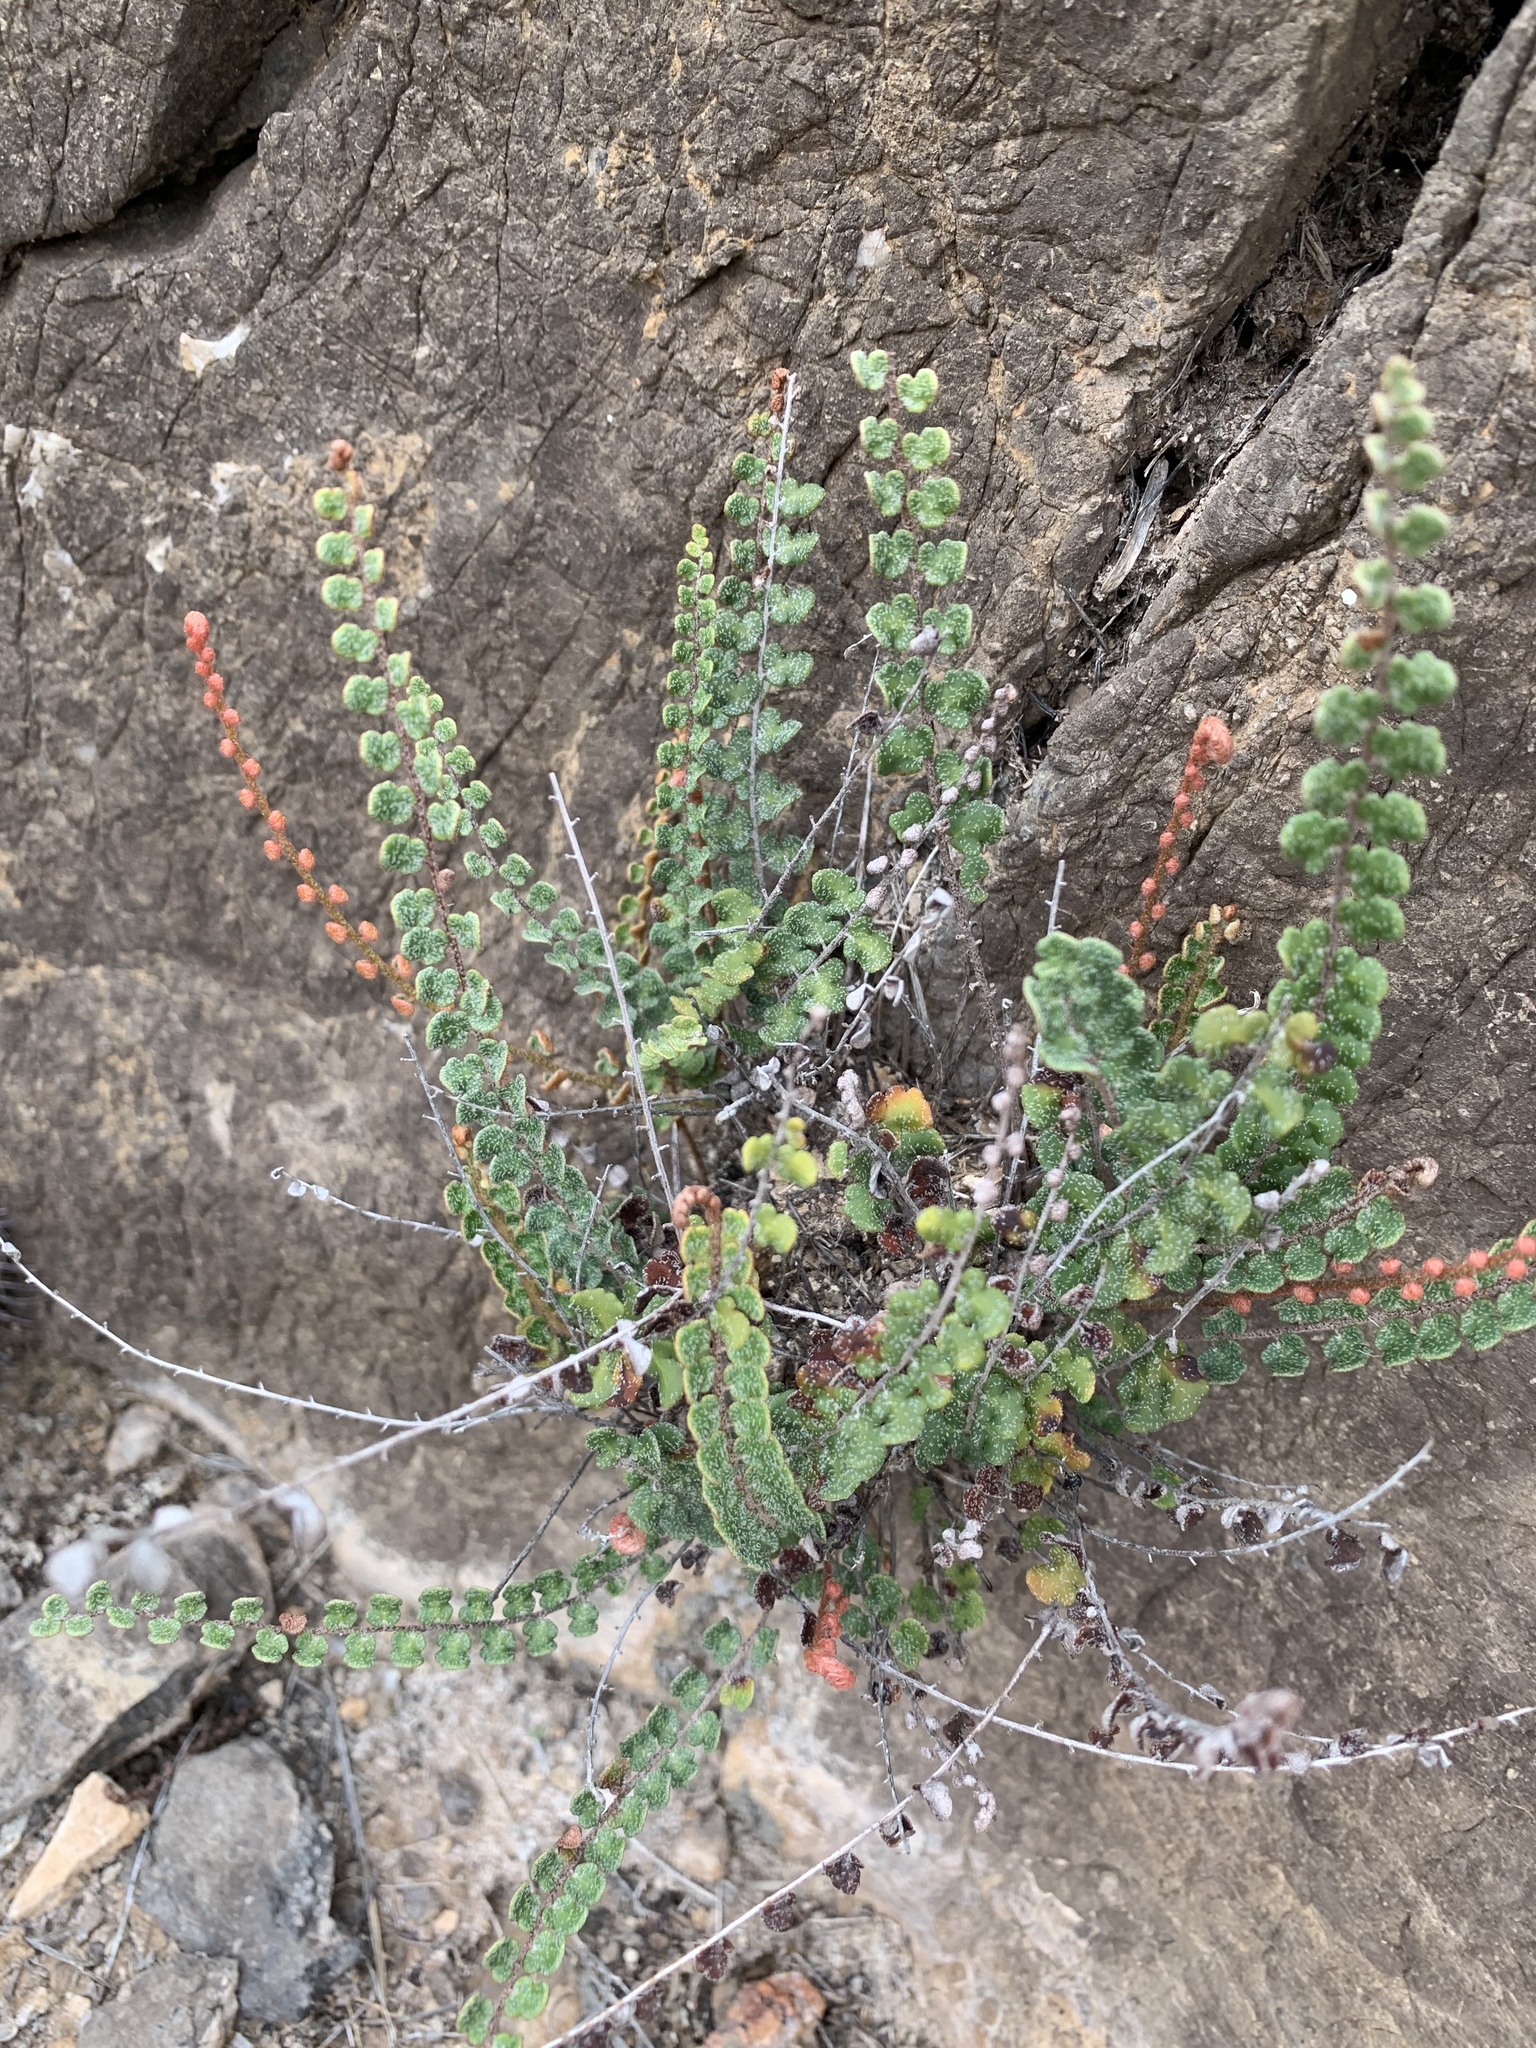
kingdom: Plantae
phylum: Tracheophyta
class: Polypodiopsida
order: Polypodiales
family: Pteridaceae
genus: Astrolepis
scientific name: Astrolepis cochisensis
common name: Scaly cloak fern
